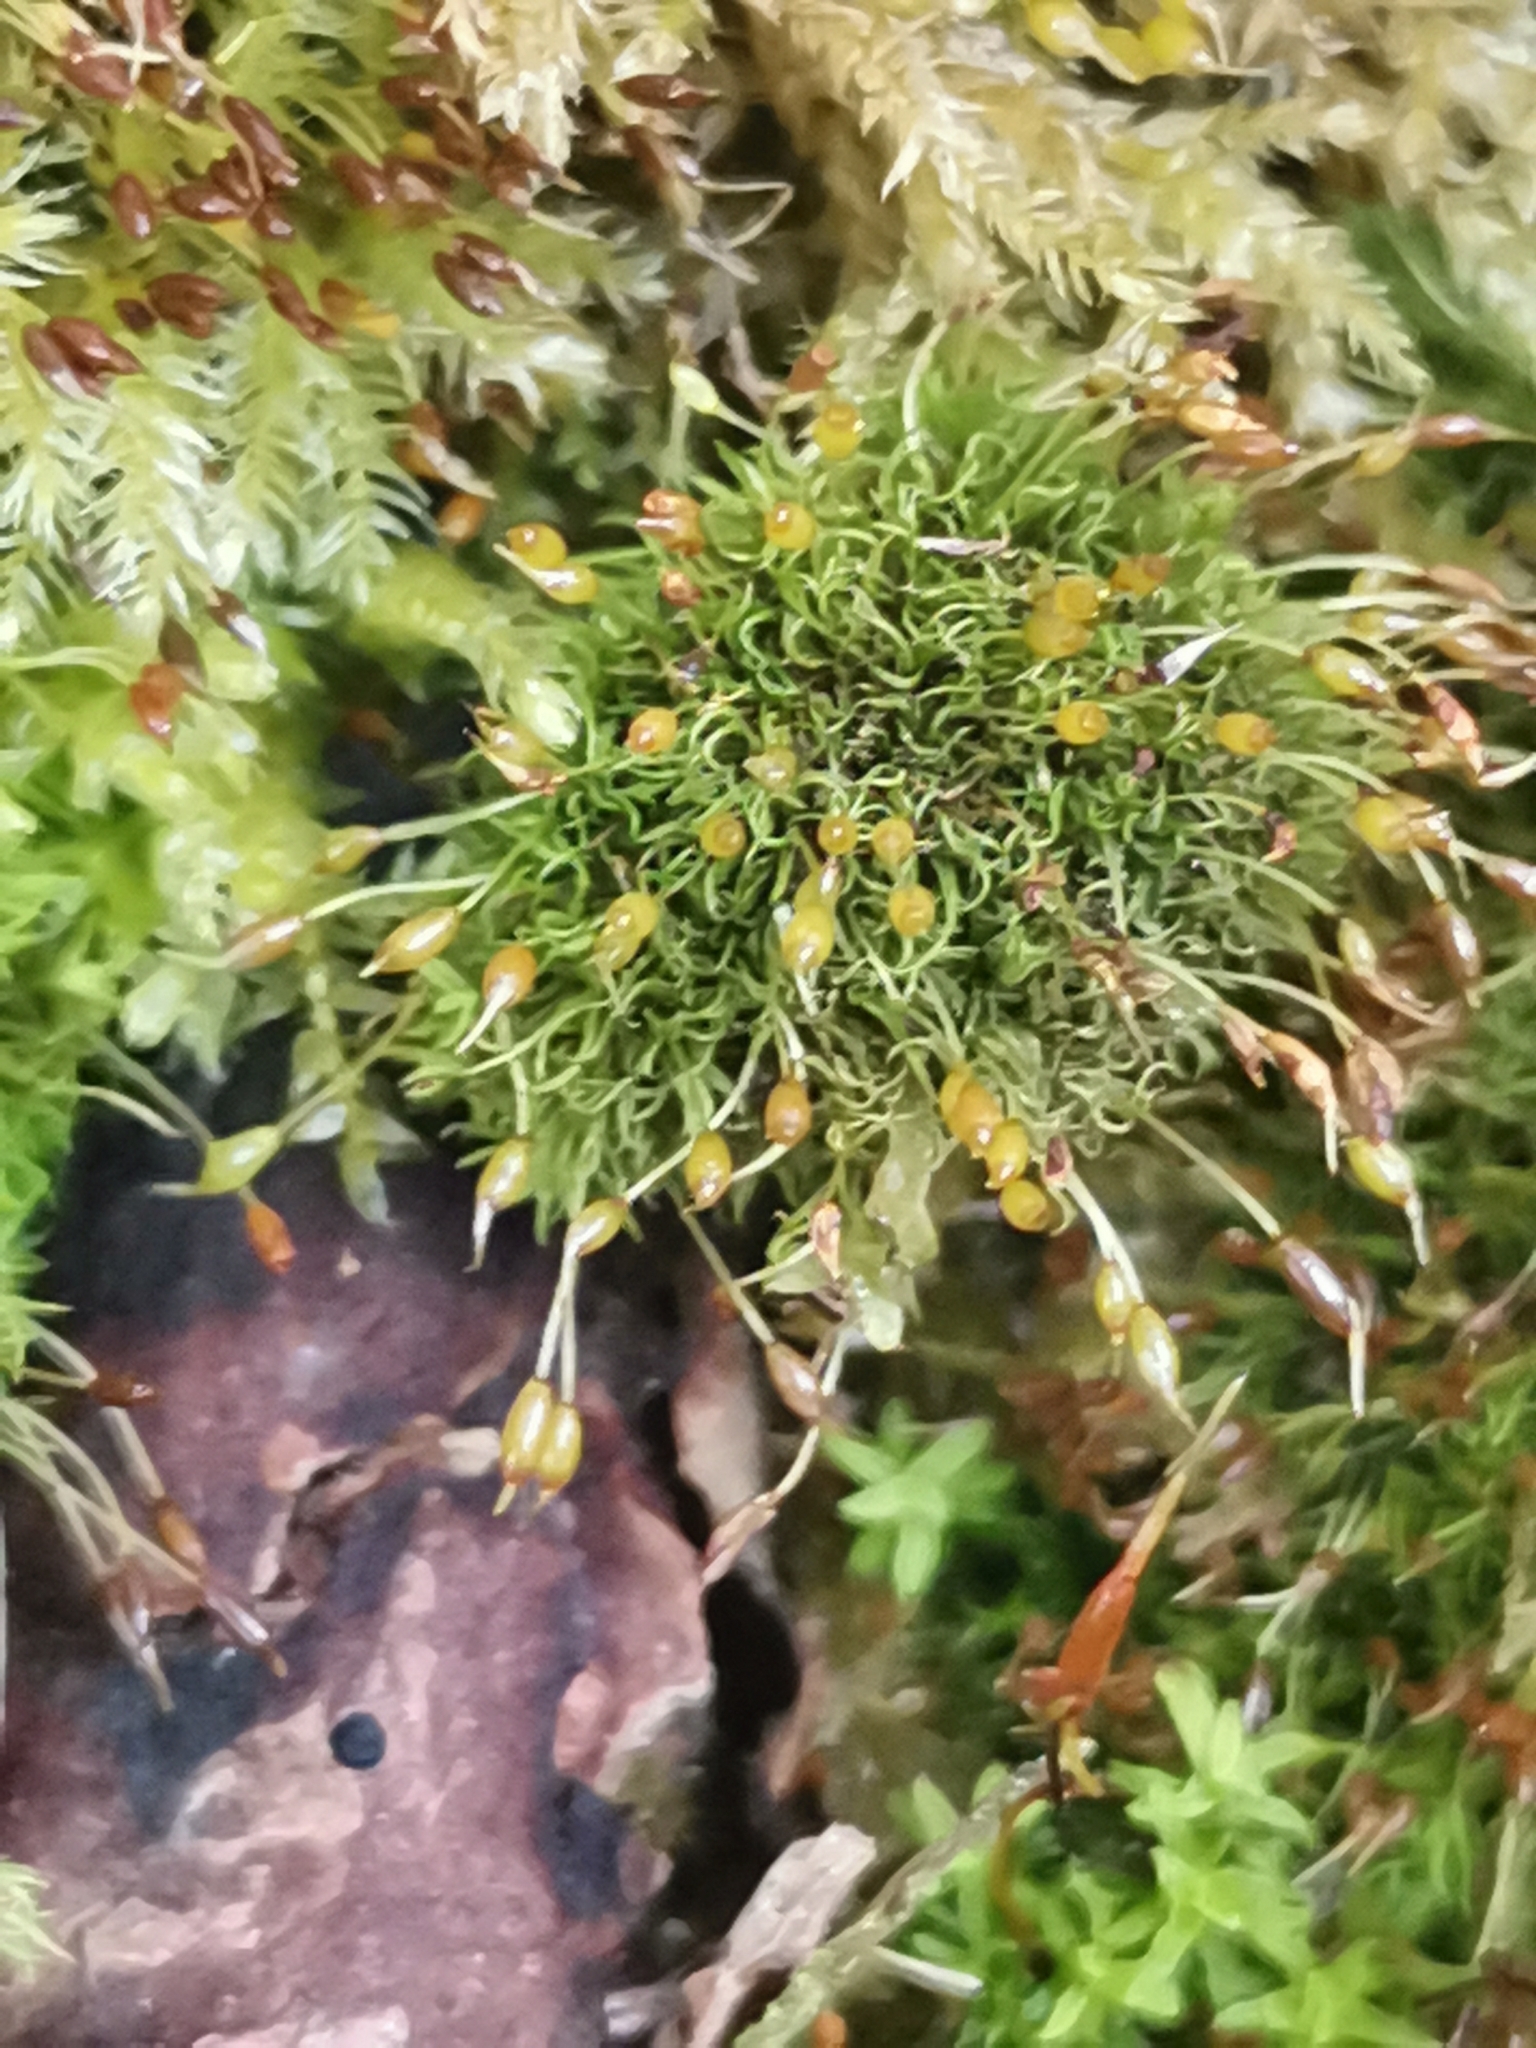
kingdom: Plantae
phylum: Bryophyta
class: Bryopsida
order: Pottiales
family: Pottiaceae
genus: Weissia
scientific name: Weissia controversa
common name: Green-tufted stubble moss
